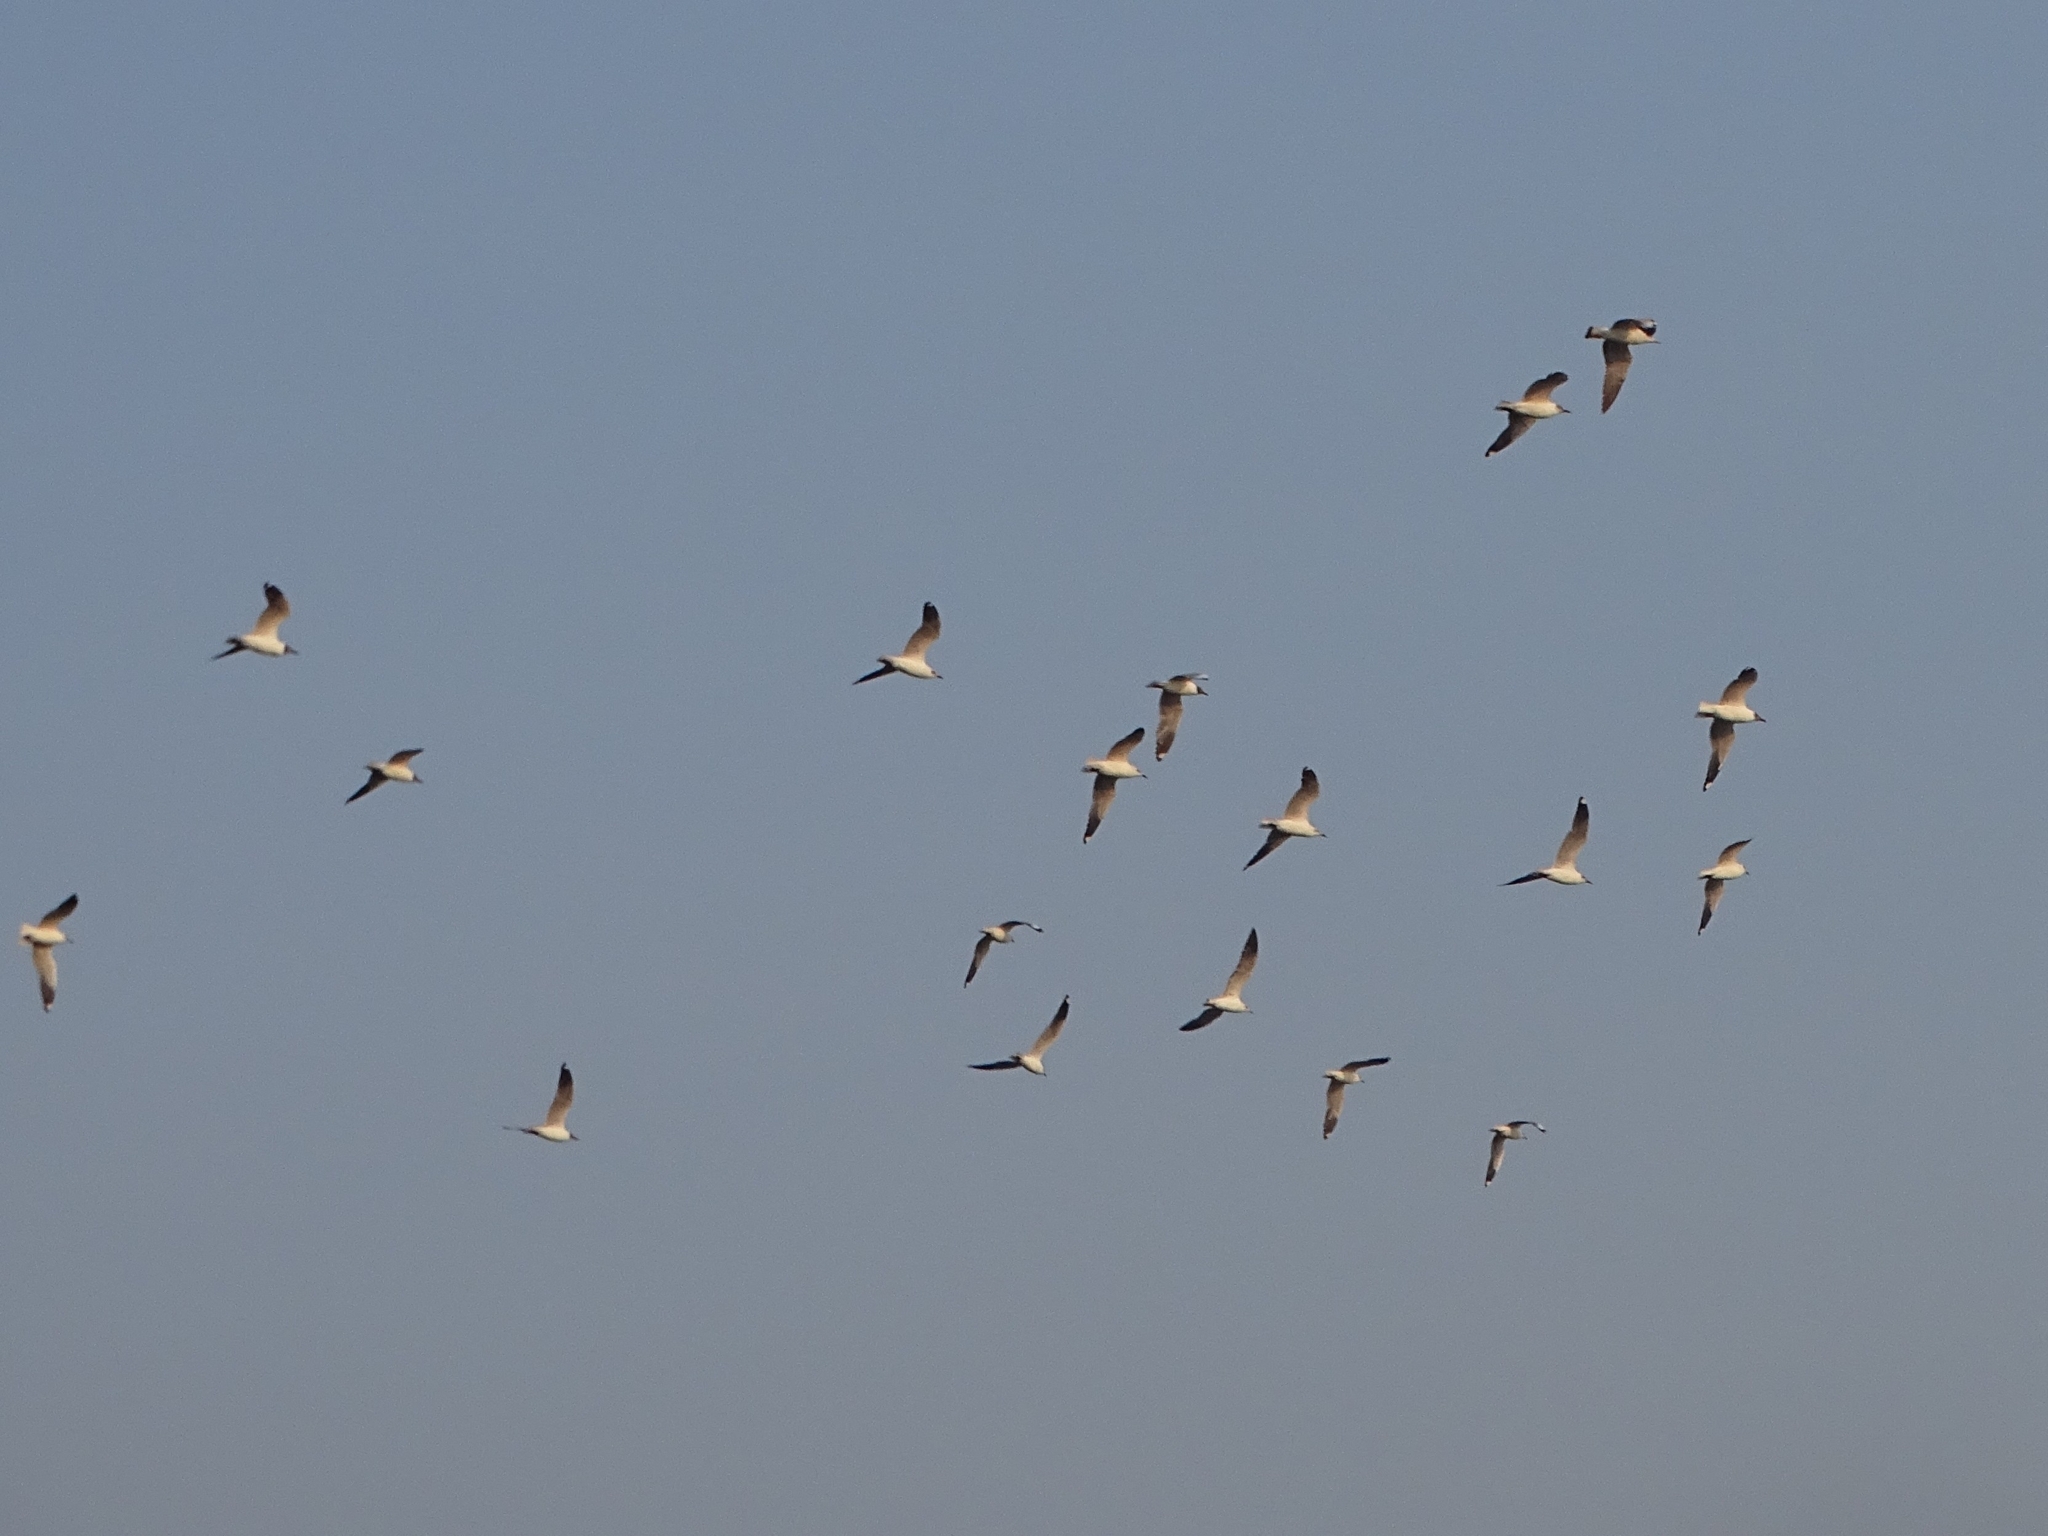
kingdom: Animalia
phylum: Chordata
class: Aves
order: Charadriiformes
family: Laridae
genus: Chroicocephalus
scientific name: Chroicocephalus brunnicephalus
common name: Brown-headed gull
